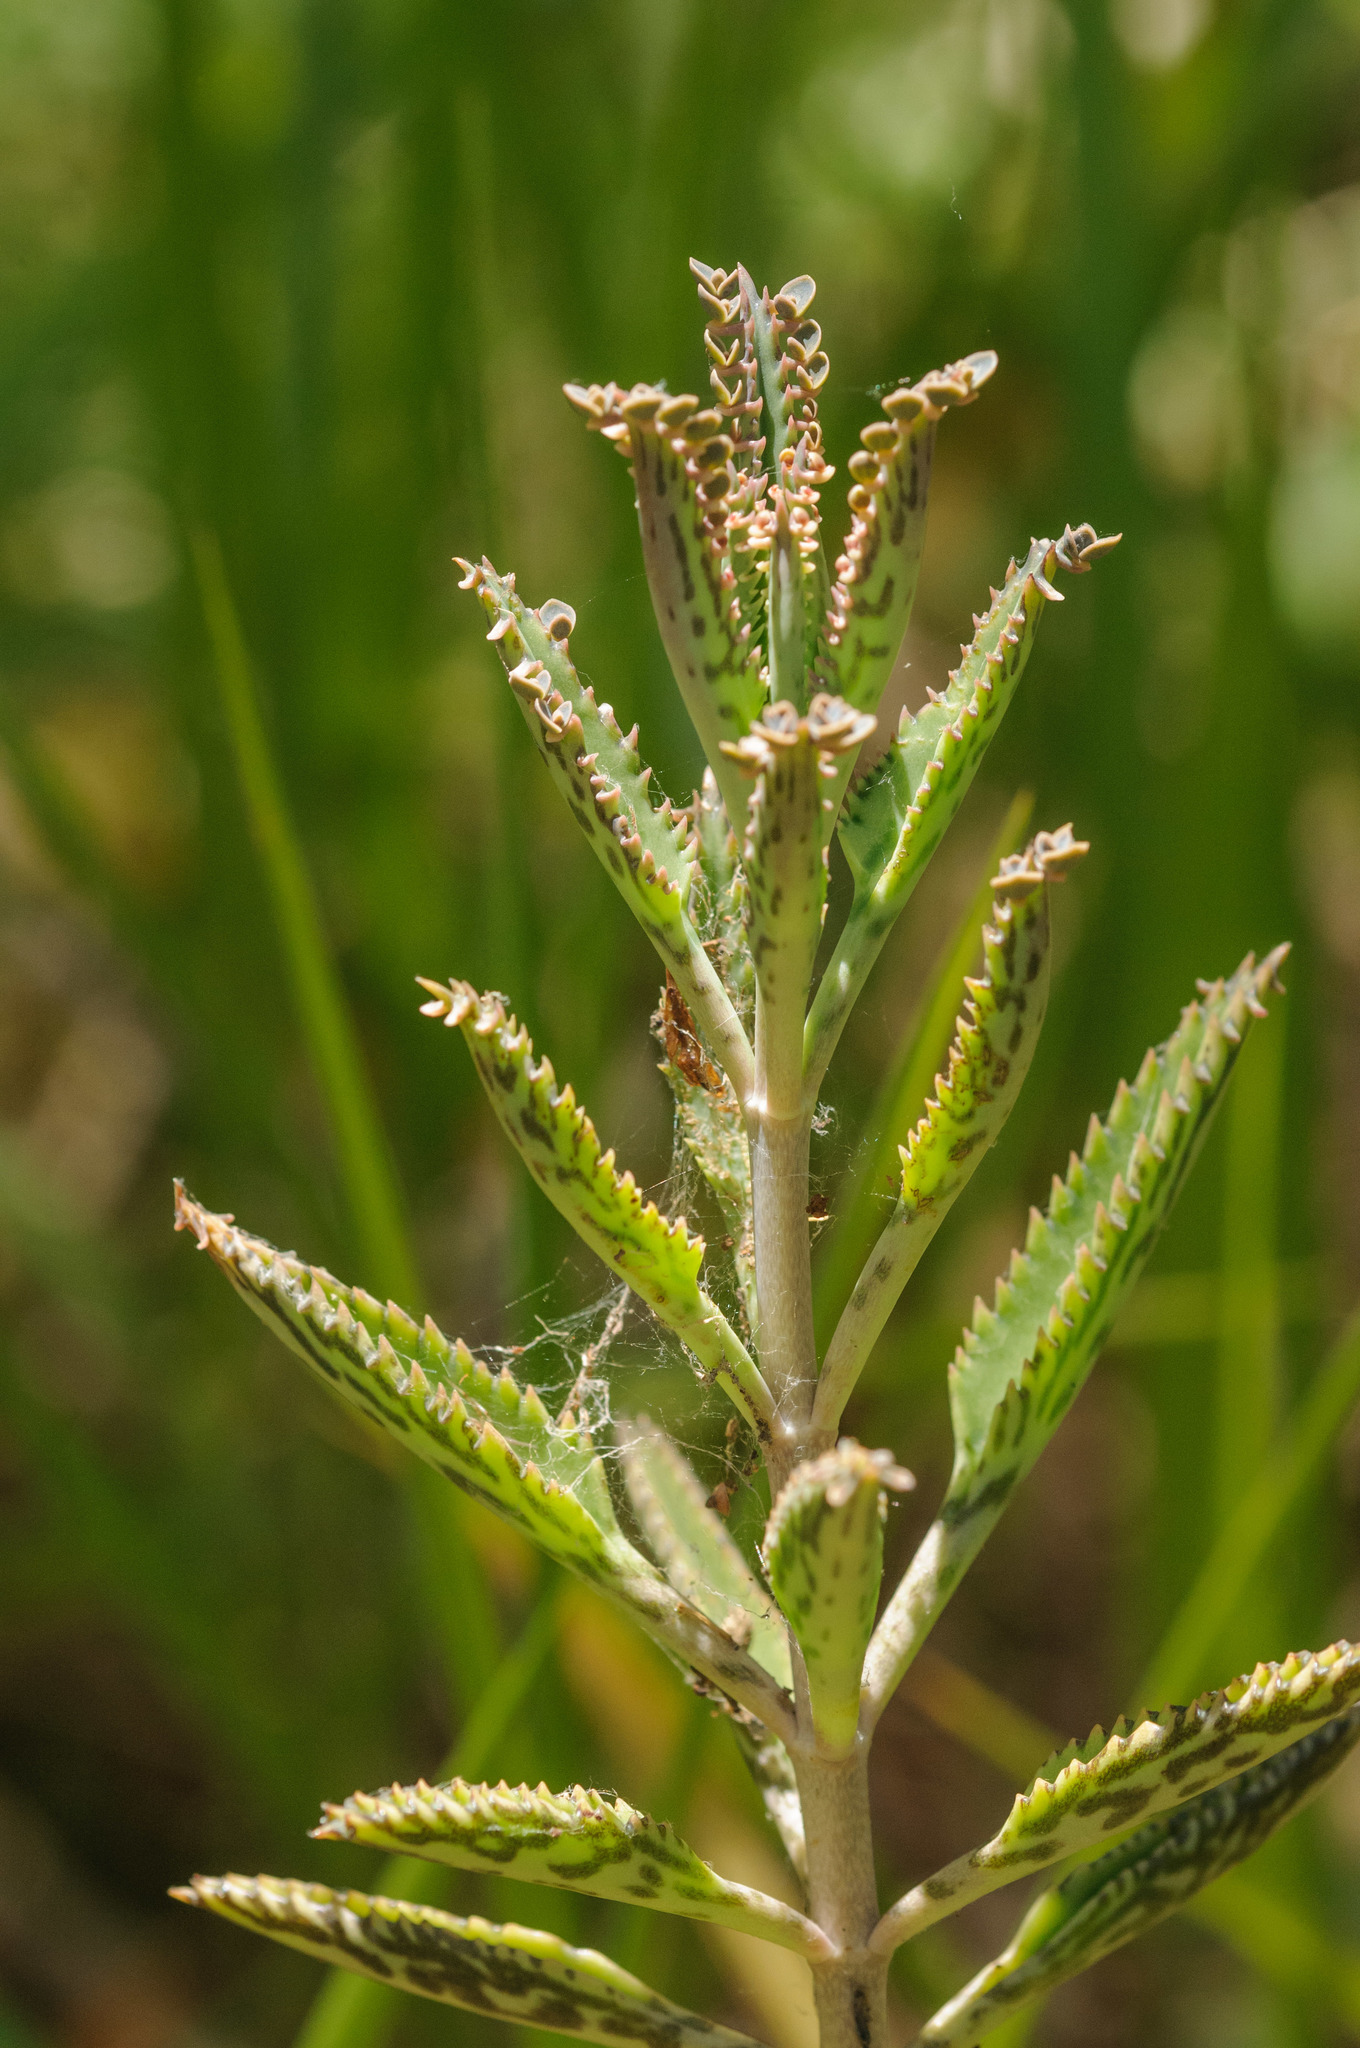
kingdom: Plantae
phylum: Tracheophyta
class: Magnoliopsida
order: Saxifragales
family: Crassulaceae
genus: Kalanchoe
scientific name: Kalanchoe houghtonii
